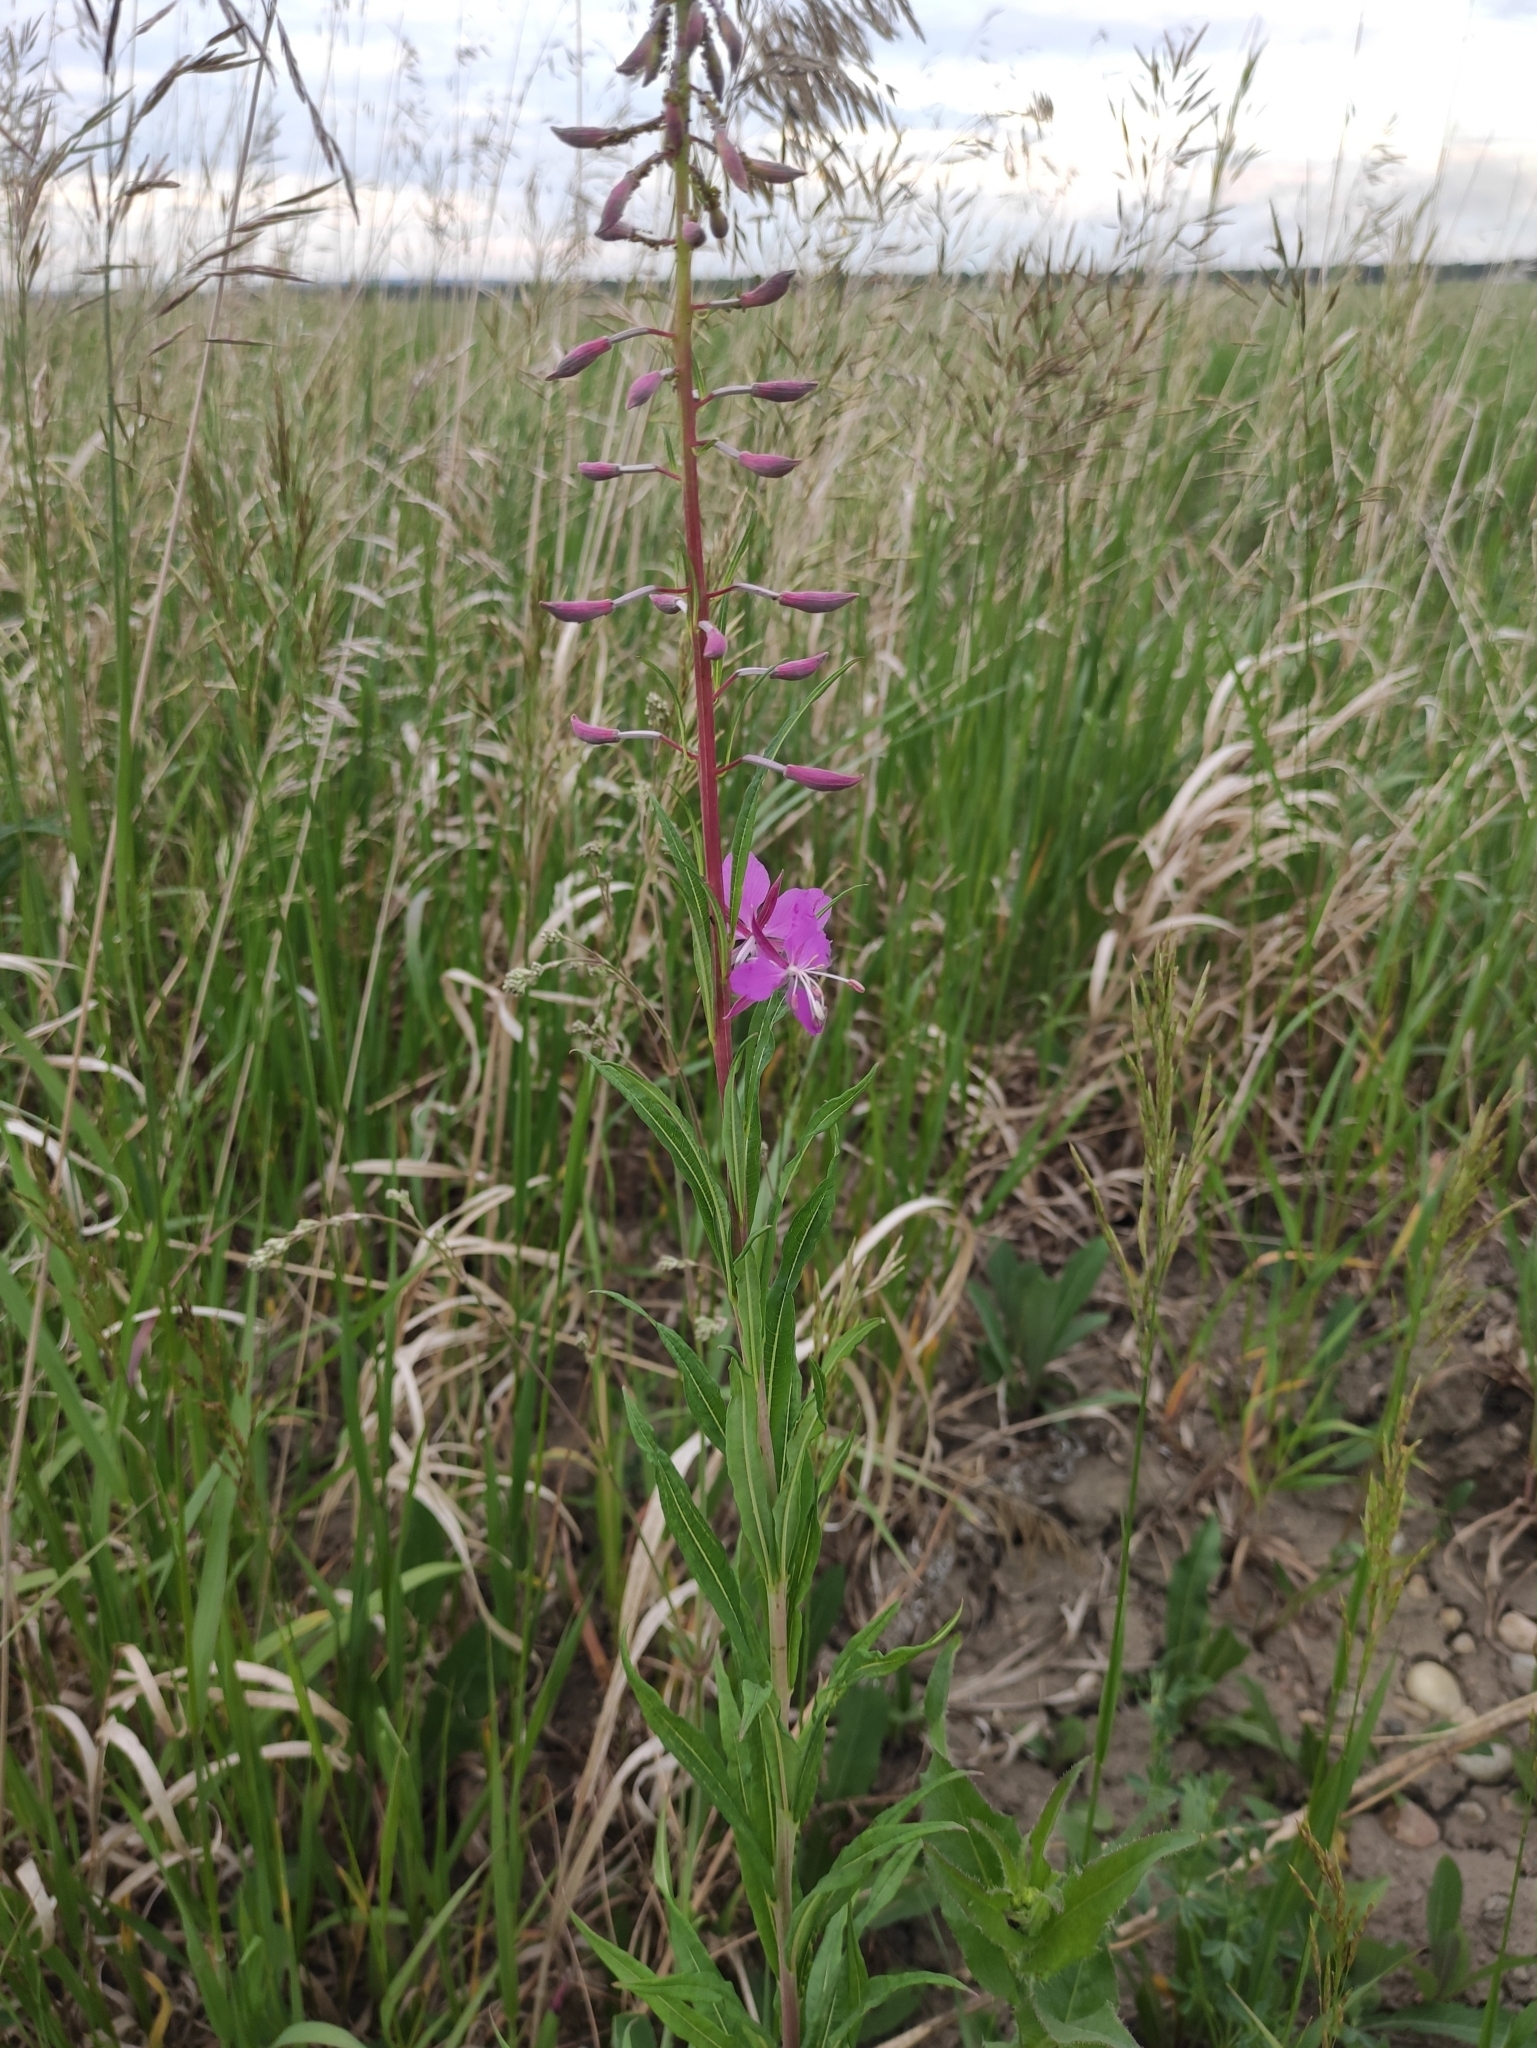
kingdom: Plantae
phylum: Tracheophyta
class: Magnoliopsida
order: Myrtales
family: Onagraceae
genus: Chamaenerion
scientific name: Chamaenerion angustifolium
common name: Fireweed
